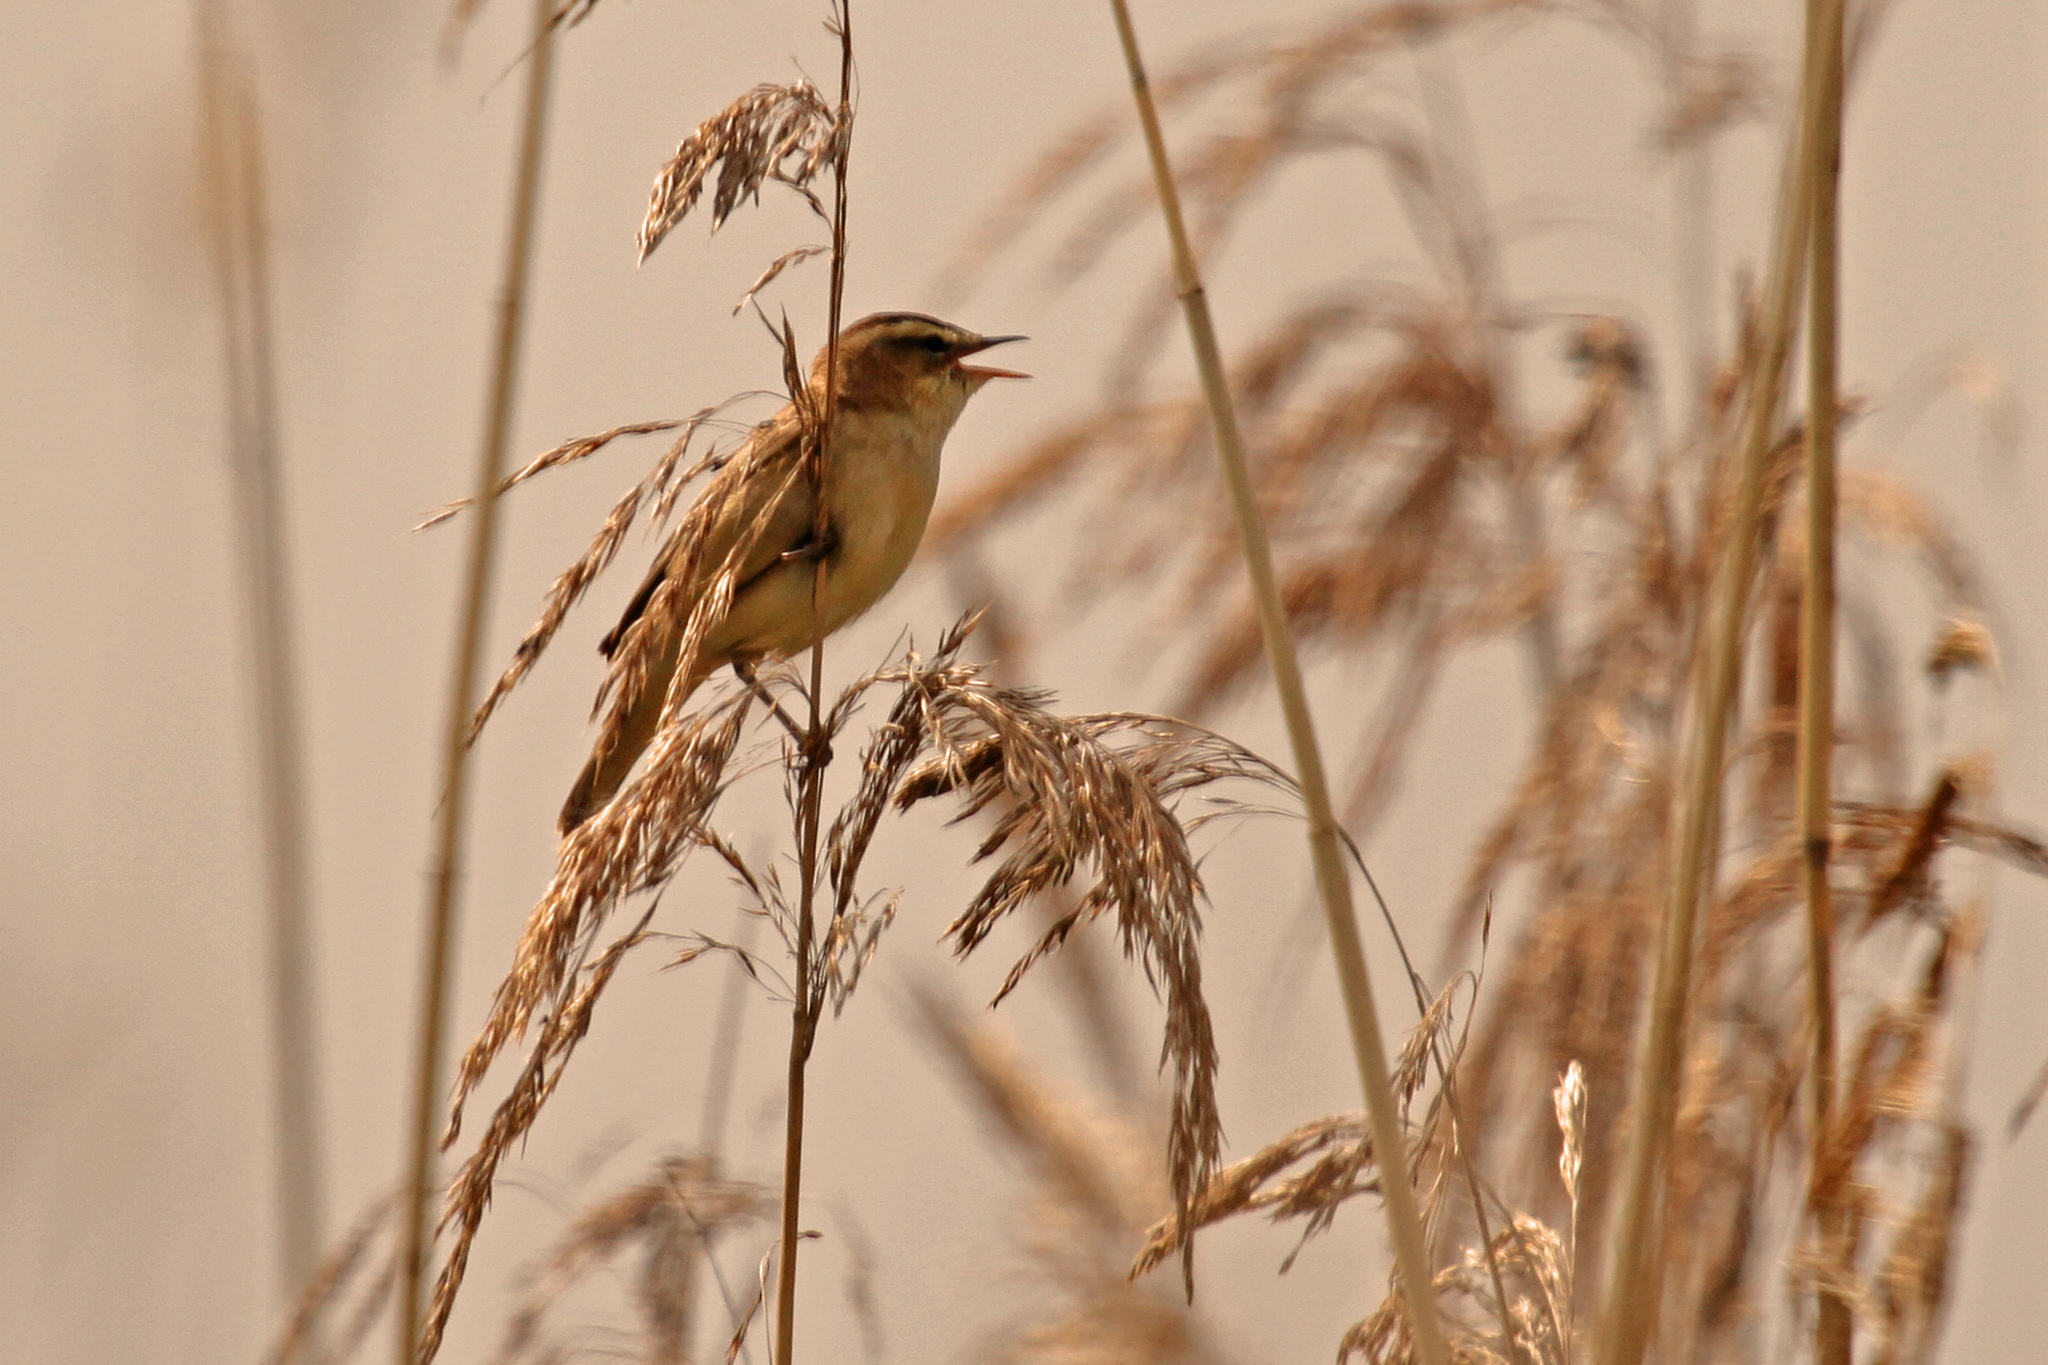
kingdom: Animalia
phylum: Chordata
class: Aves
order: Passeriformes
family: Acrocephalidae
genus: Acrocephalus
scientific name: Acrocephalus schoenobaenus
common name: Sedge warbler
